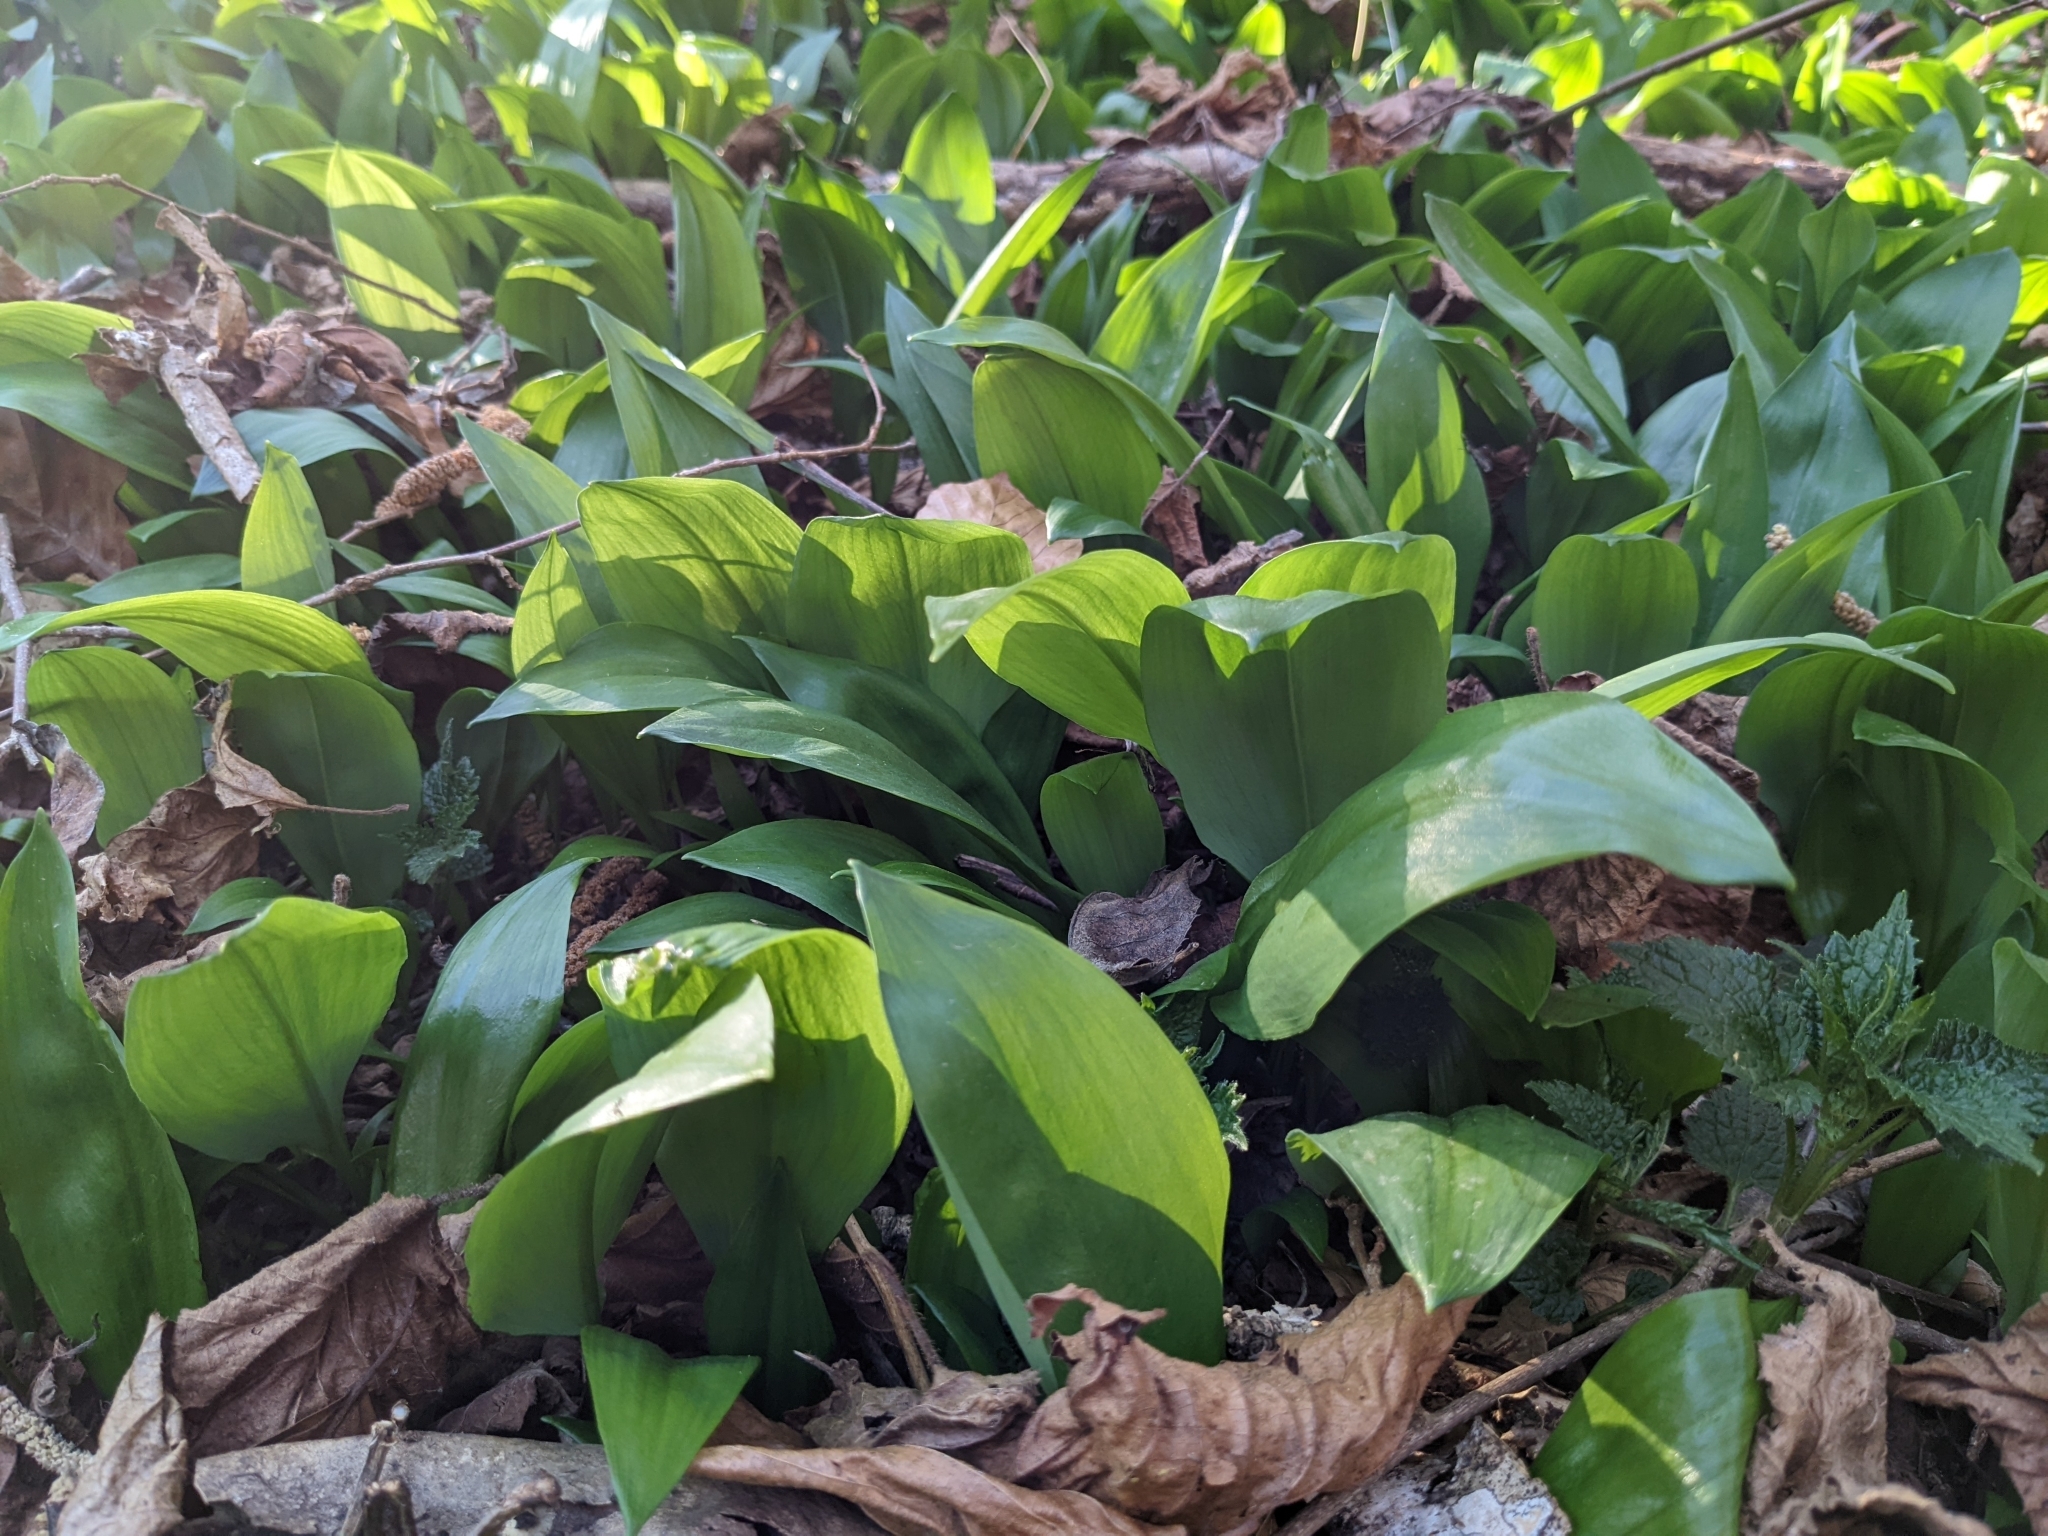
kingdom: Plantae
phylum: Tracheophyta
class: Liliopsida
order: Asparagales
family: Amaryllidaceae
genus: Allium
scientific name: Allium ursinum
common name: Ramsons
